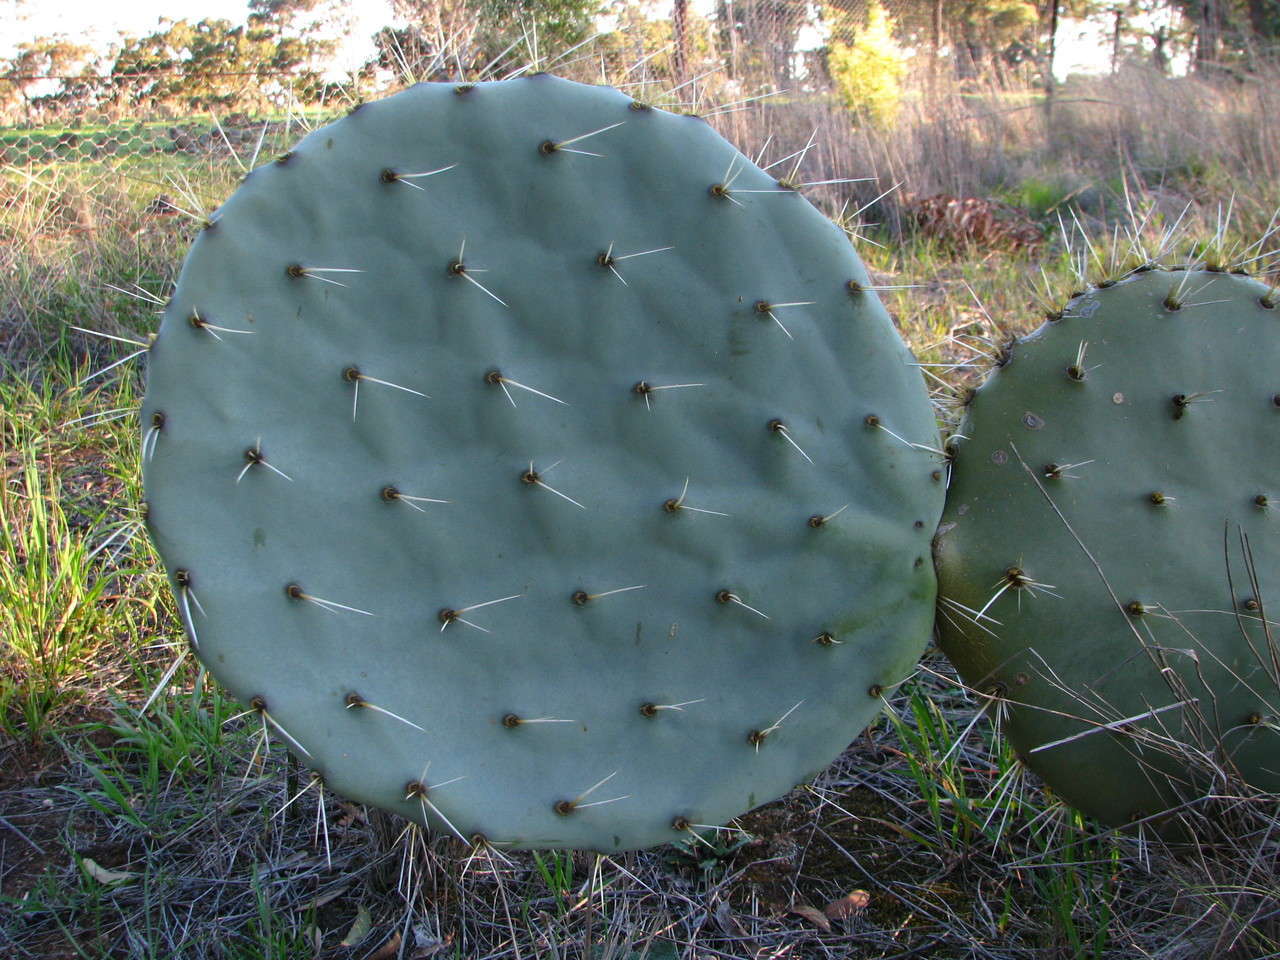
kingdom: Plantae
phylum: Tracheophyta
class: Magnoliopsida
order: Caryophyllales
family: Cactaceae
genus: Opuntia
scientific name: Opuntia robusta
